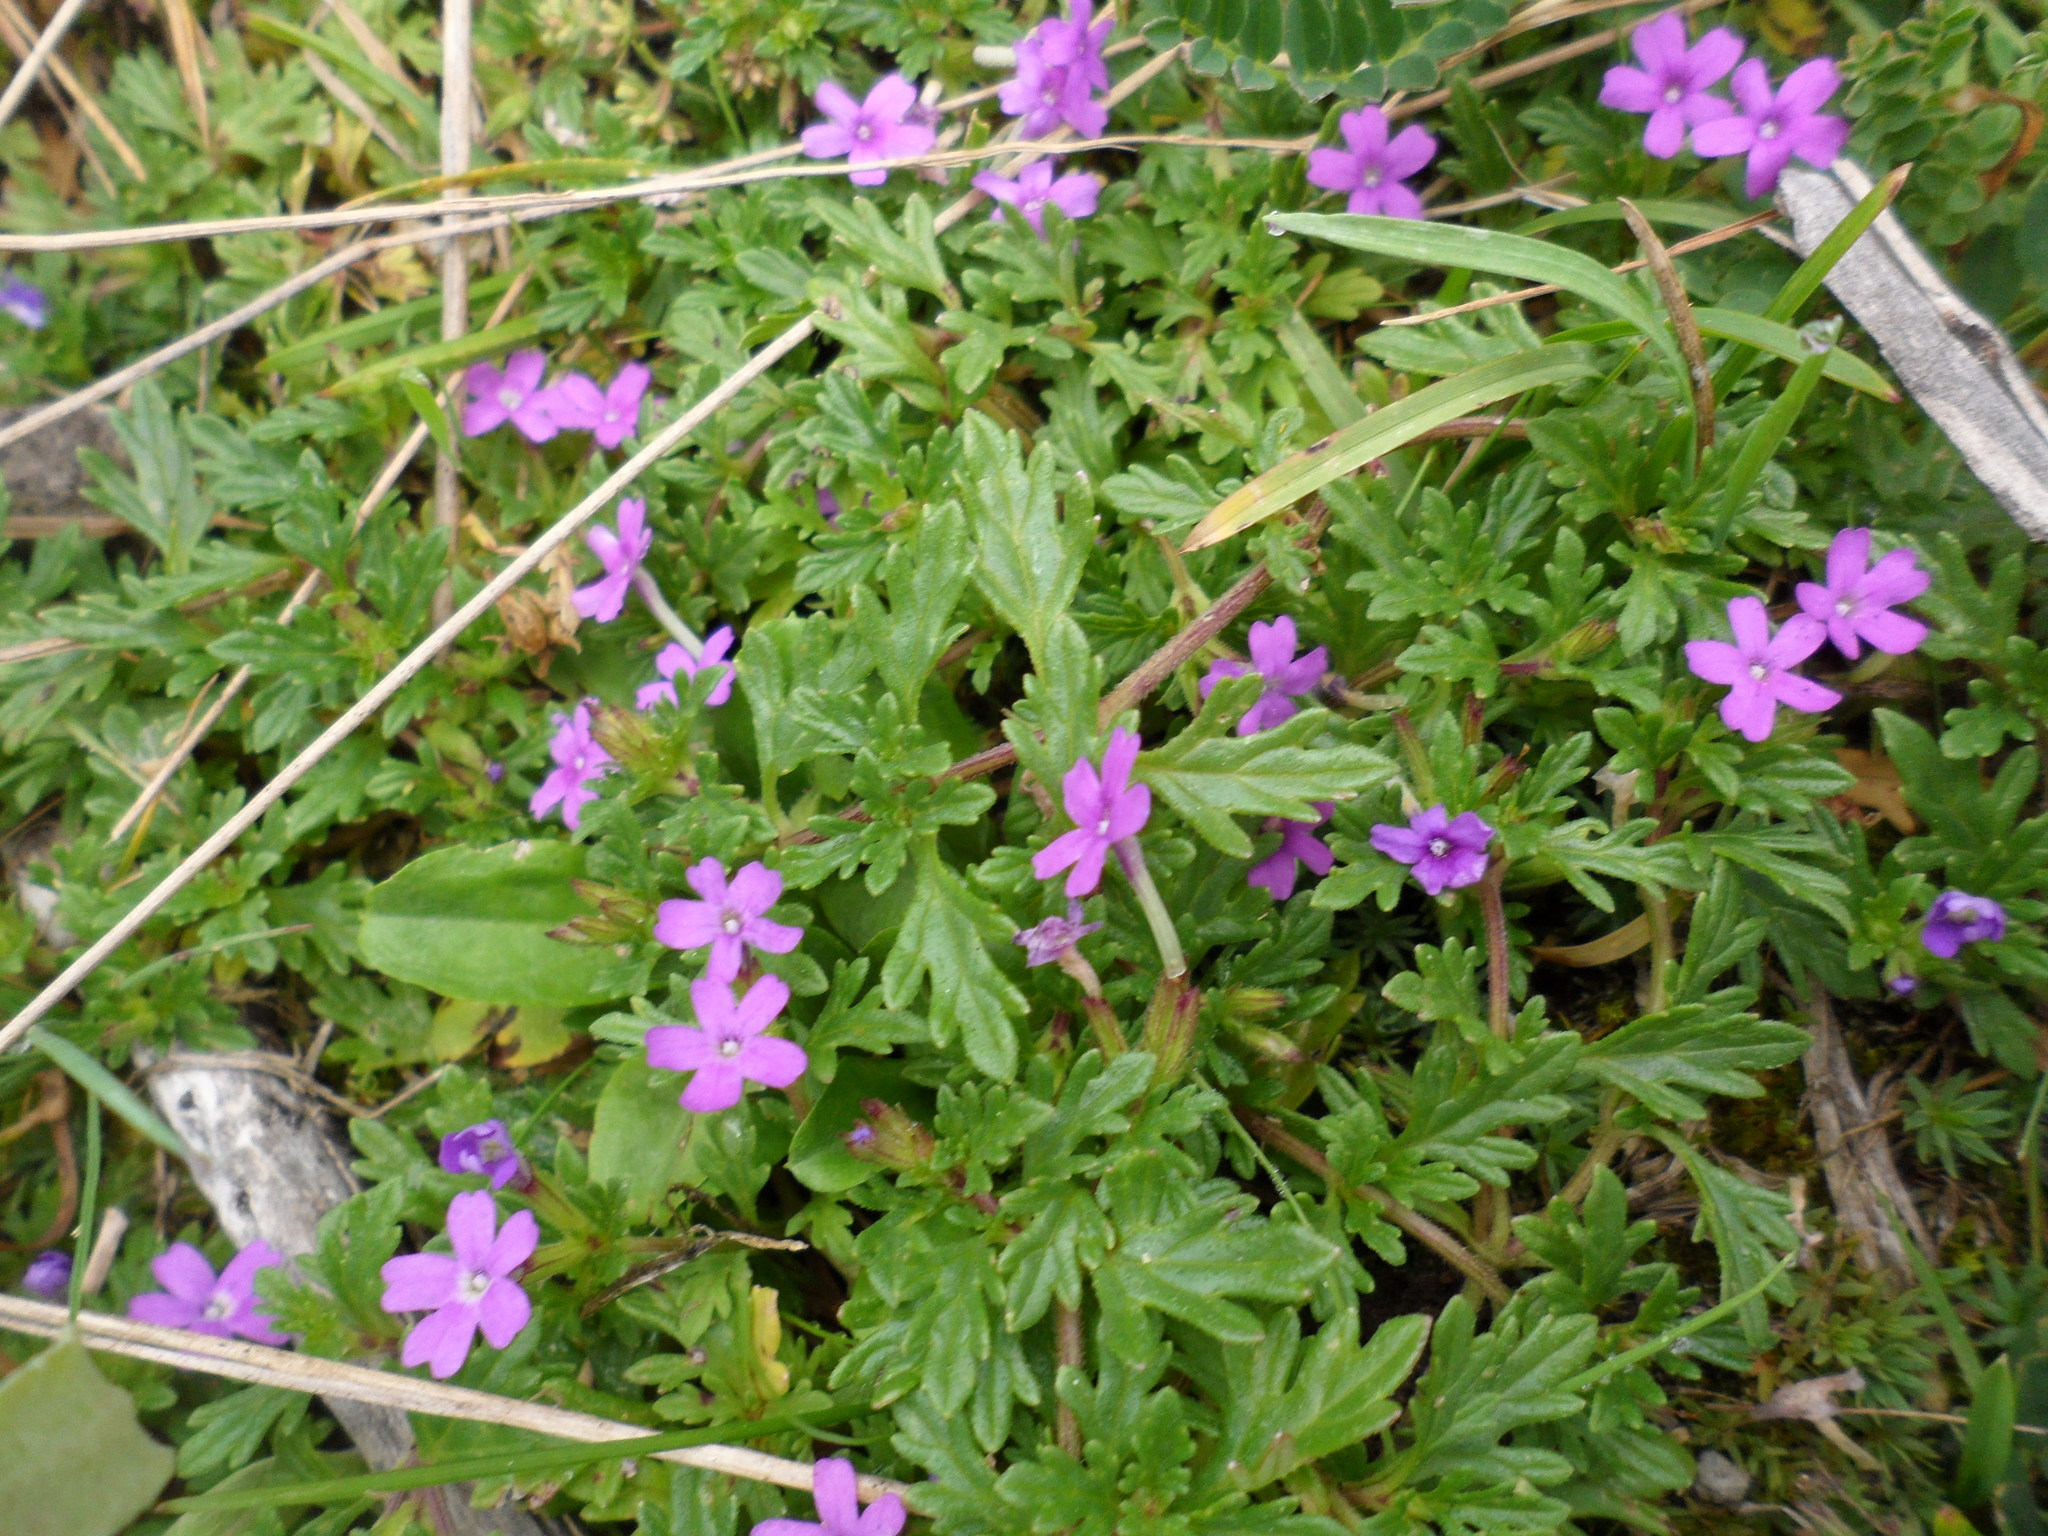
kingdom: Plantae
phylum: Tracheophyta
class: Magnoliopsida
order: Lamiales
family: Verbenaceae
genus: Verbena
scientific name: Verbena bipinnatifida
